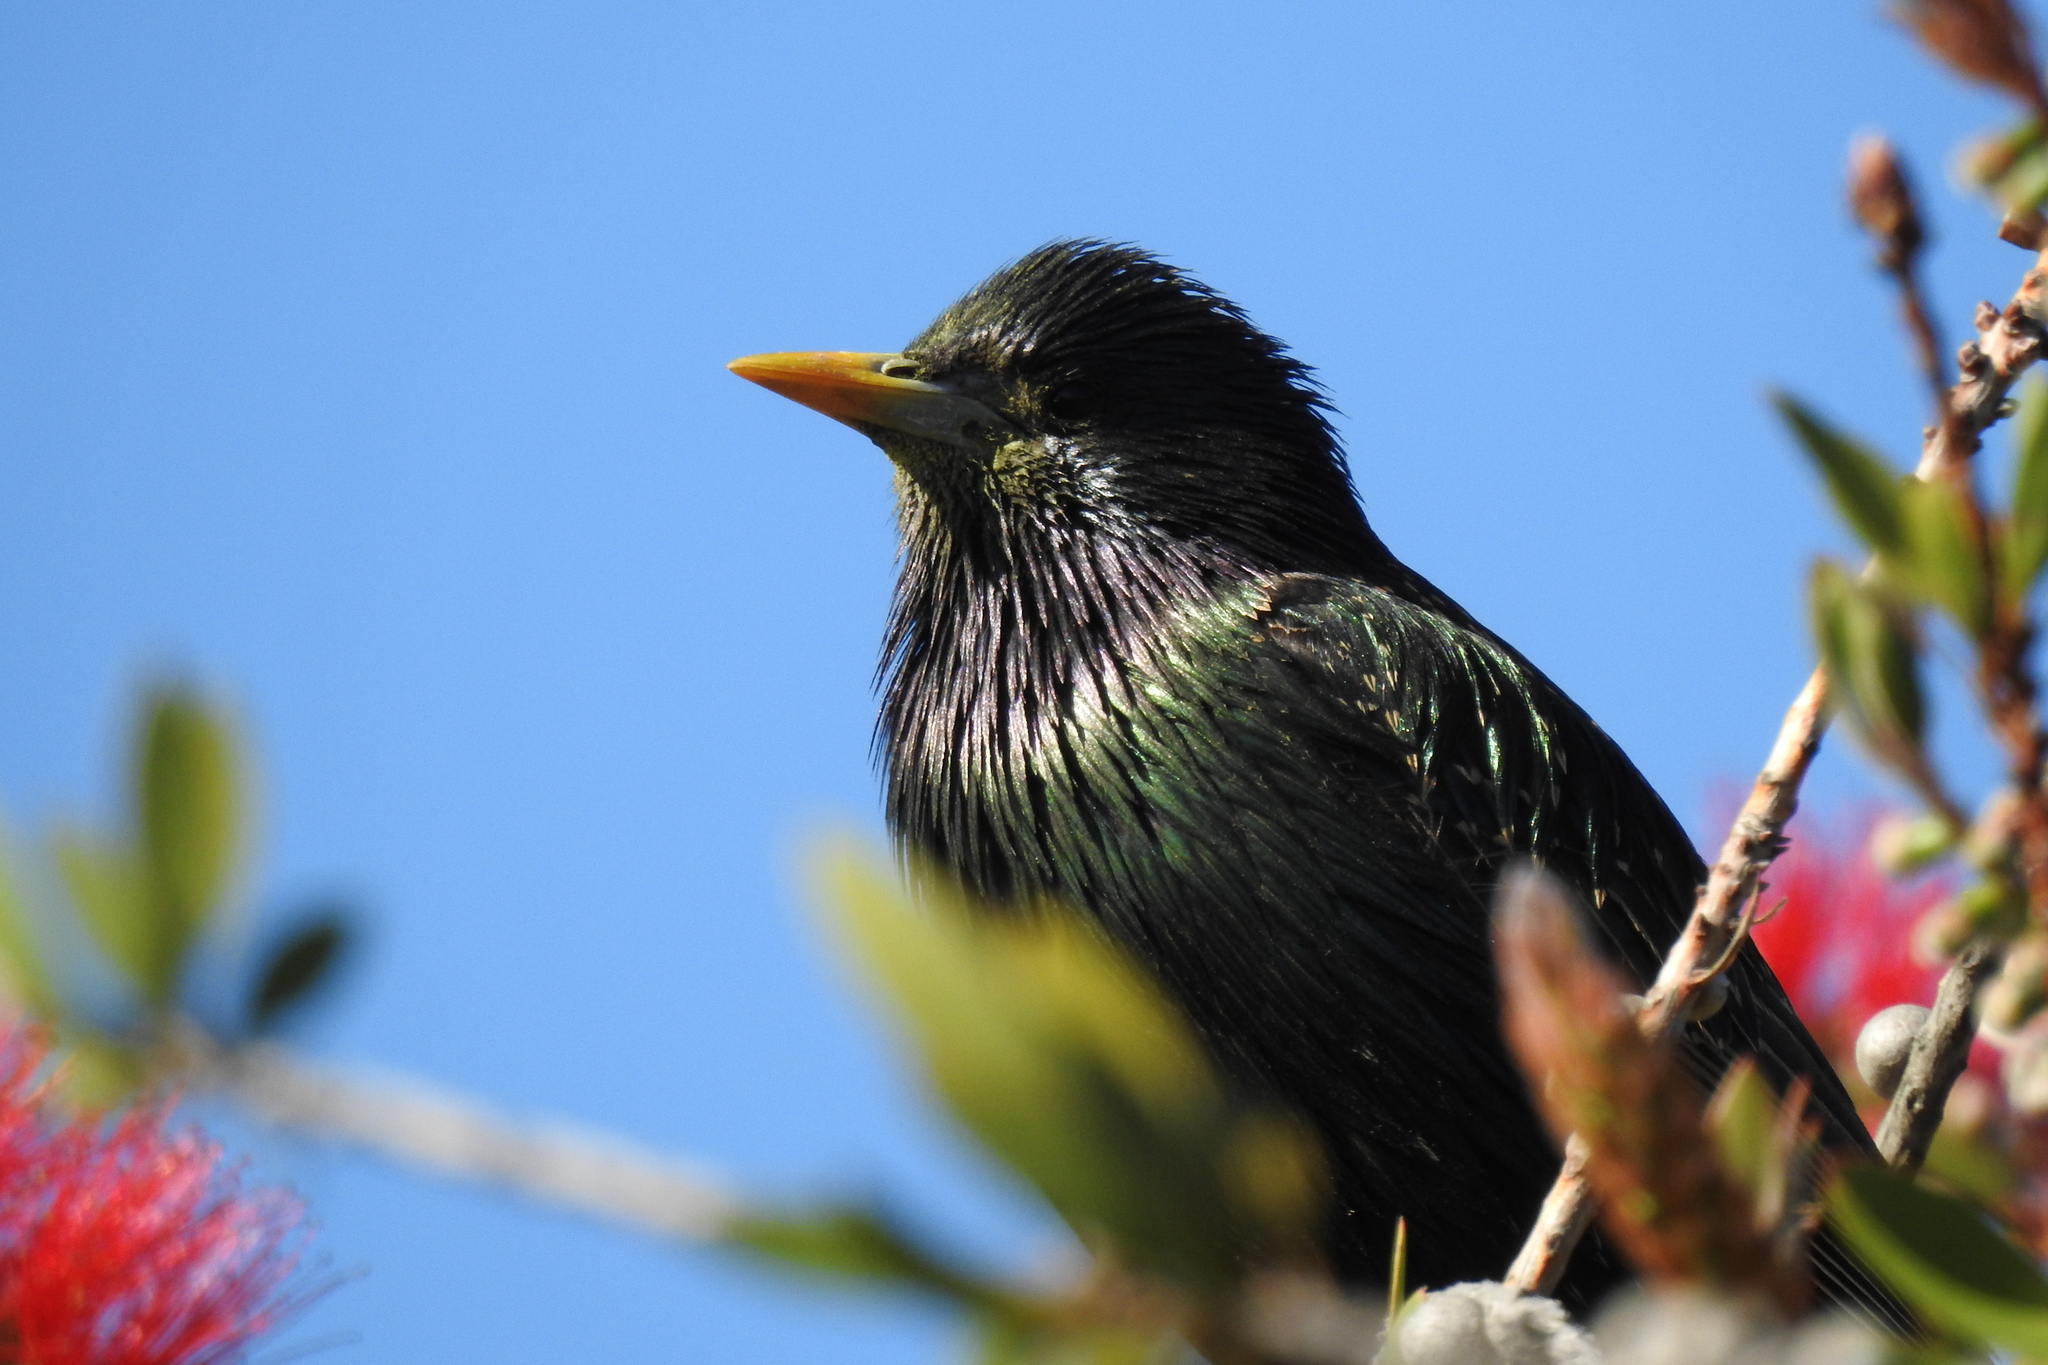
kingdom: Animalia
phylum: Chordata
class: Aves
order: Passeriformes
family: Sturnidae
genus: Sturnus
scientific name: Sturnus vulgaris
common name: Common starling
